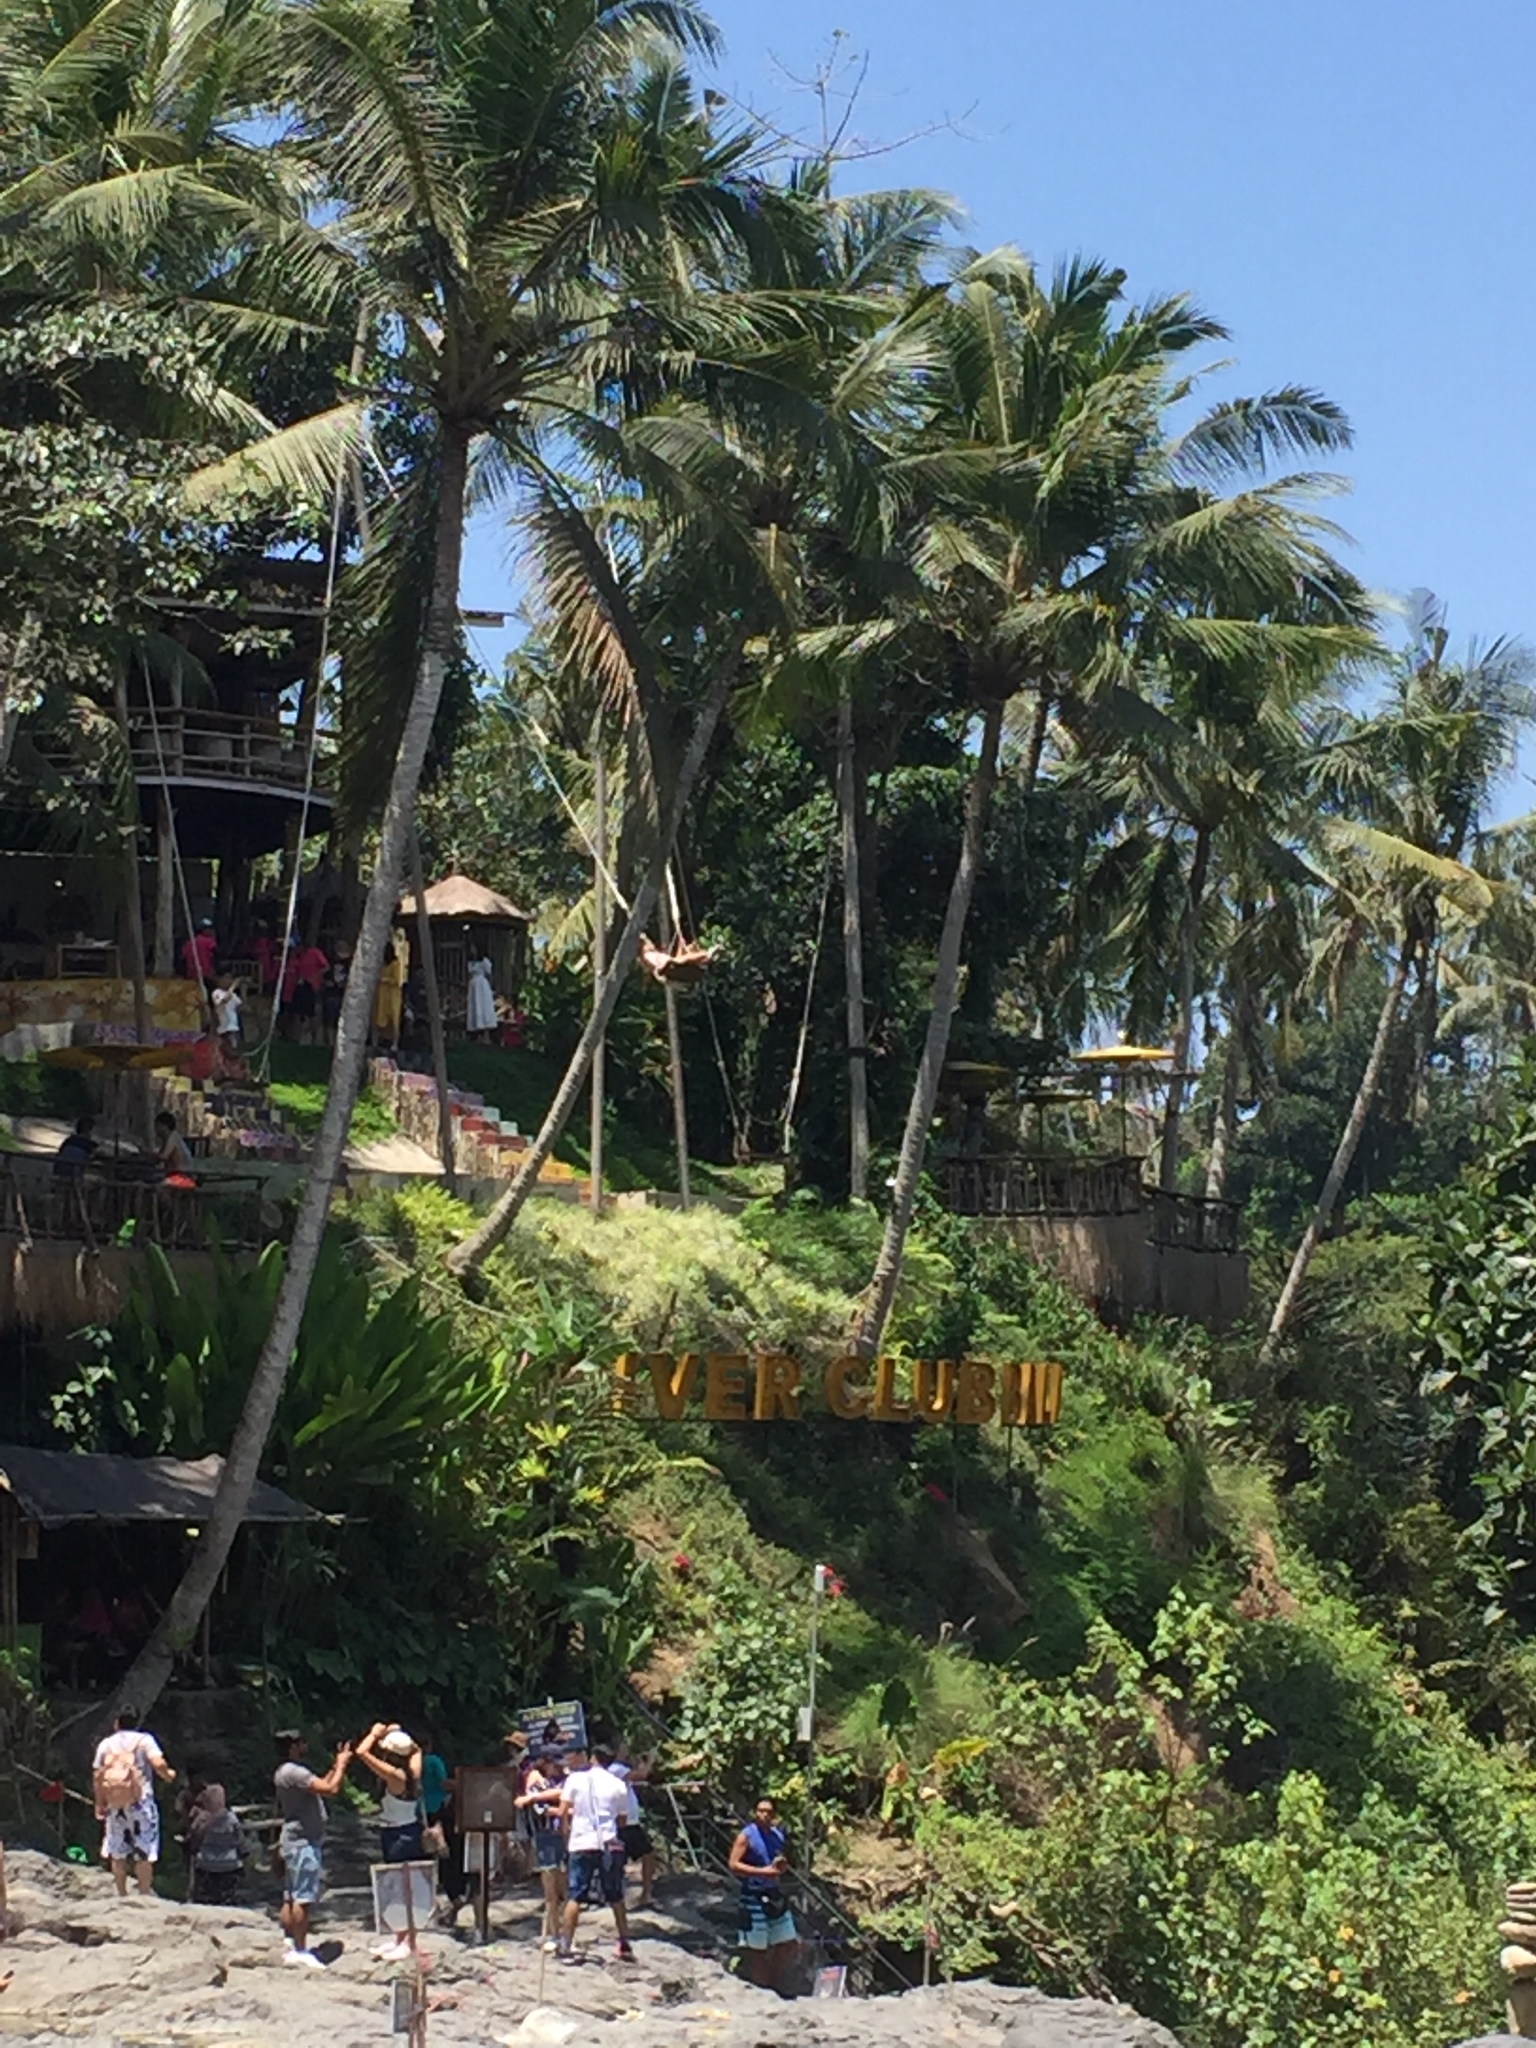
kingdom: Plantae
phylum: Tracheophyta
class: Liliopsida
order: Arecales
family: Arecaceae
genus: Cocos
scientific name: Cocos nucifera
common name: Coconut palm
